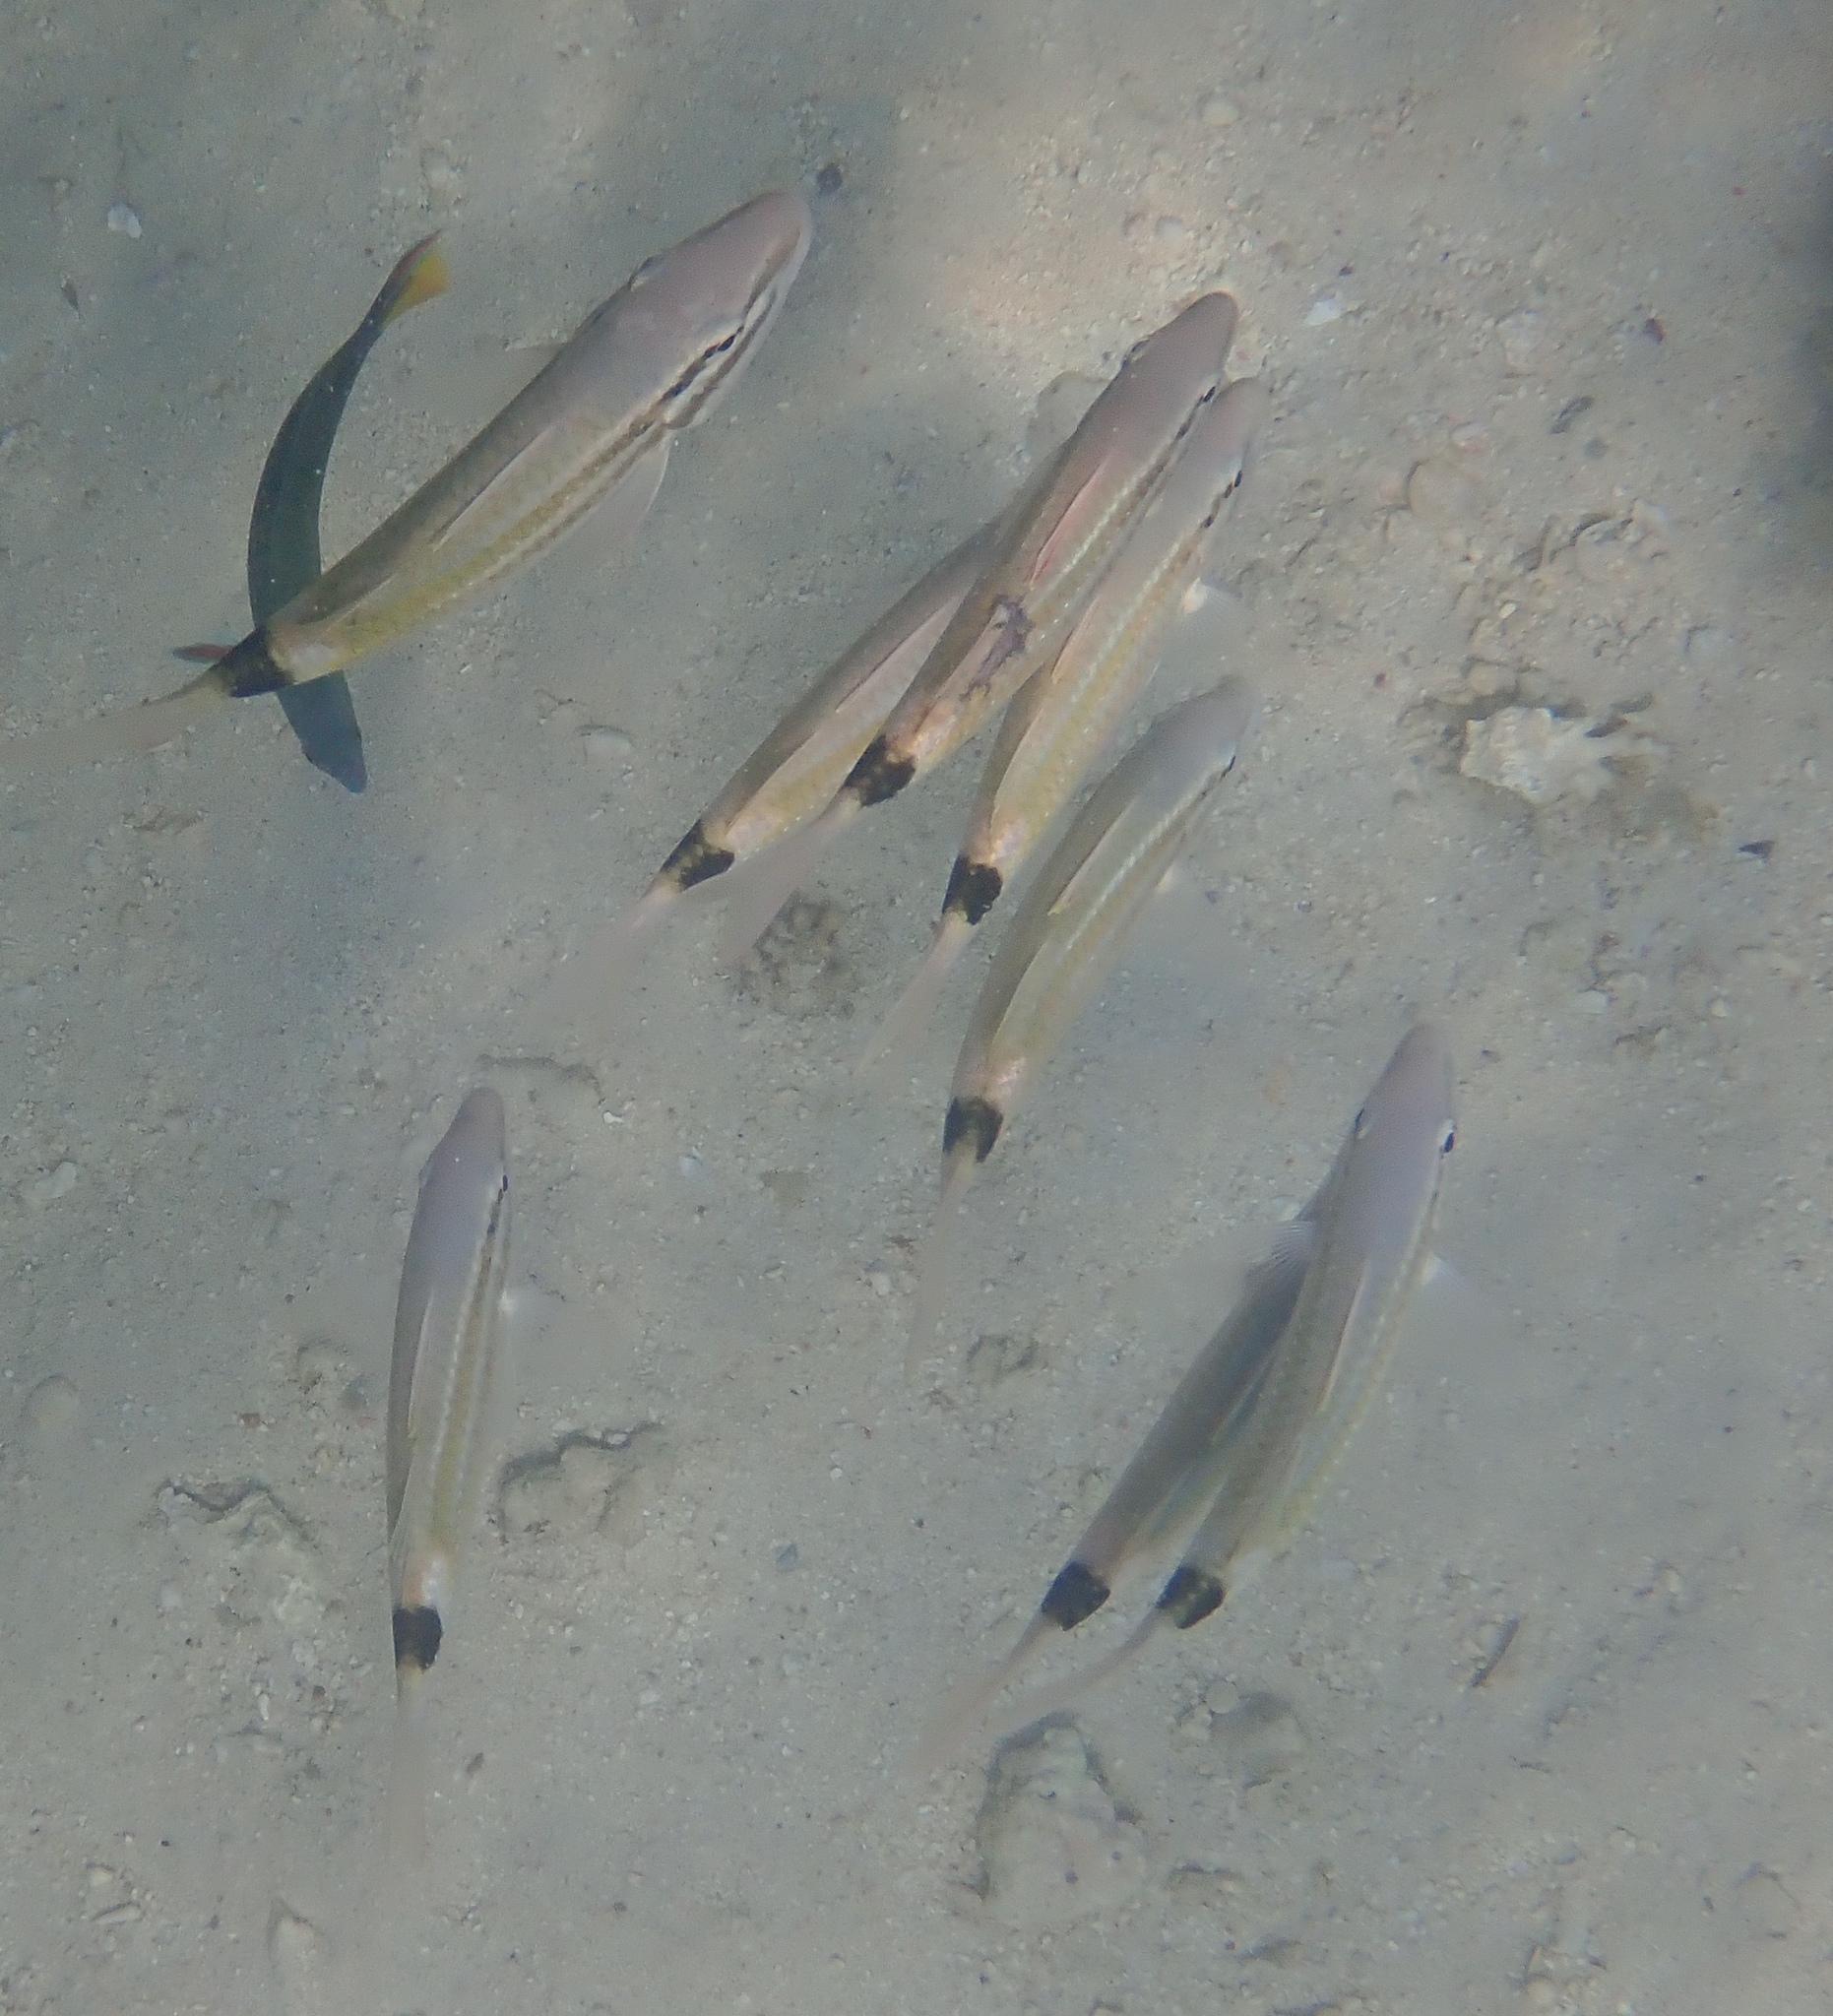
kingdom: Animalia
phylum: Chordata
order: Perciformes
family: Mullidae
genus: Parupeneus
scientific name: Parupeneus spilurus
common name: Blackspot goatfish
